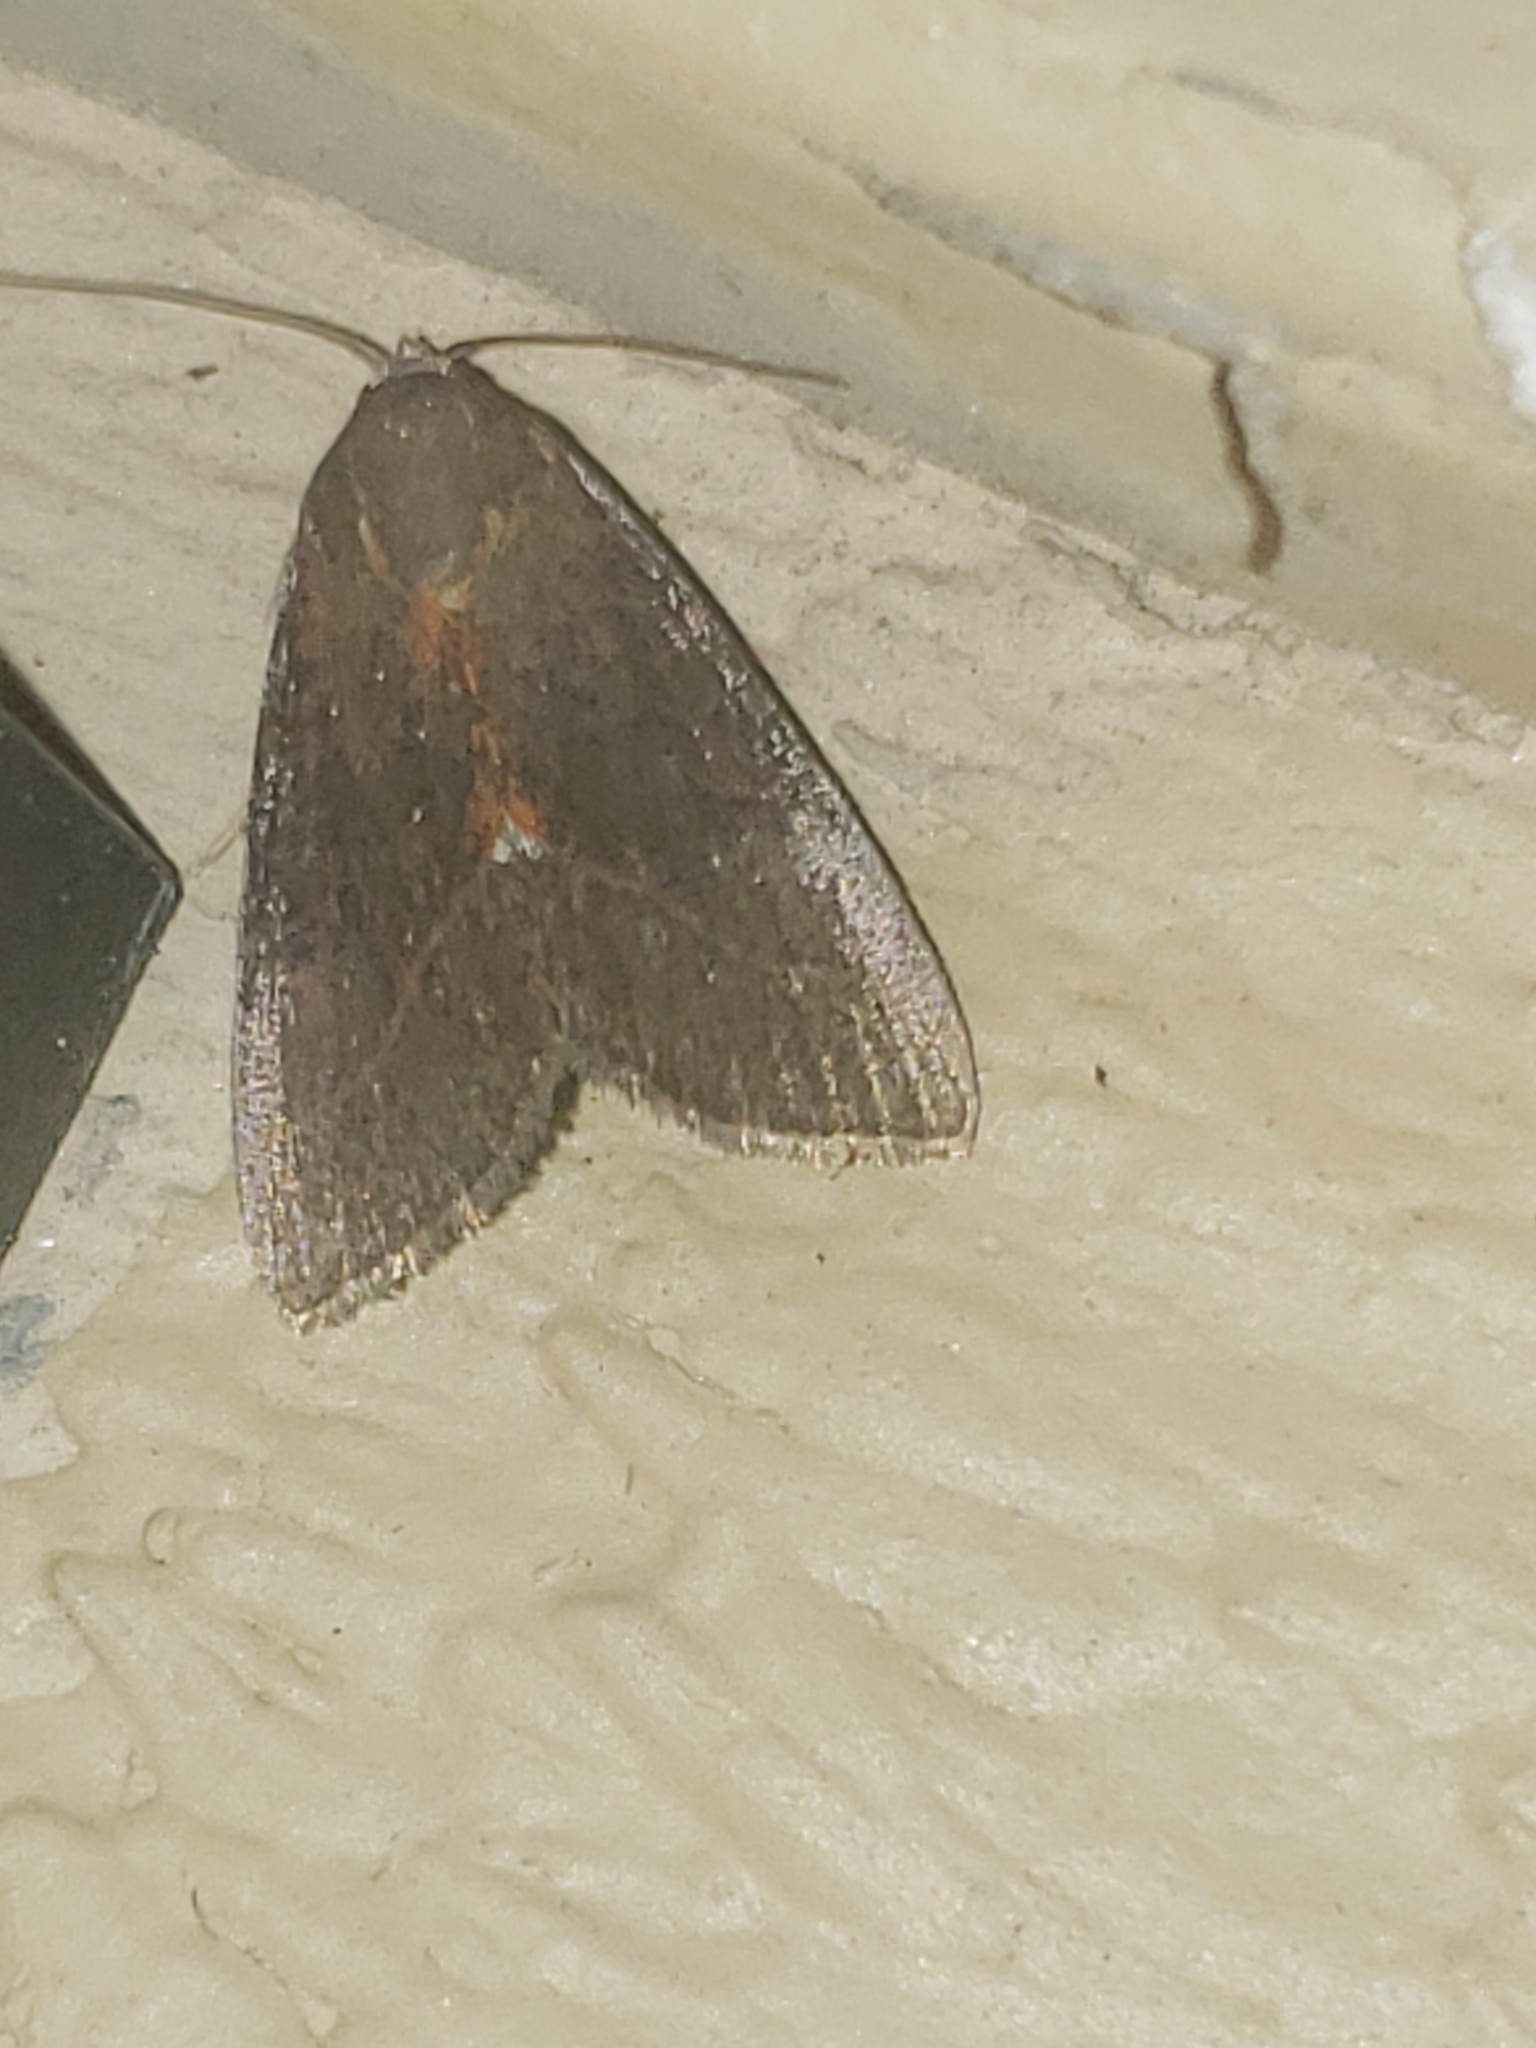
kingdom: Animalia
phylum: Arthropoda
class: Insecta
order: Lepidoptera
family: Noctuidae
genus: Galgula
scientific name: Galgula partita
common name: Wedgeling
